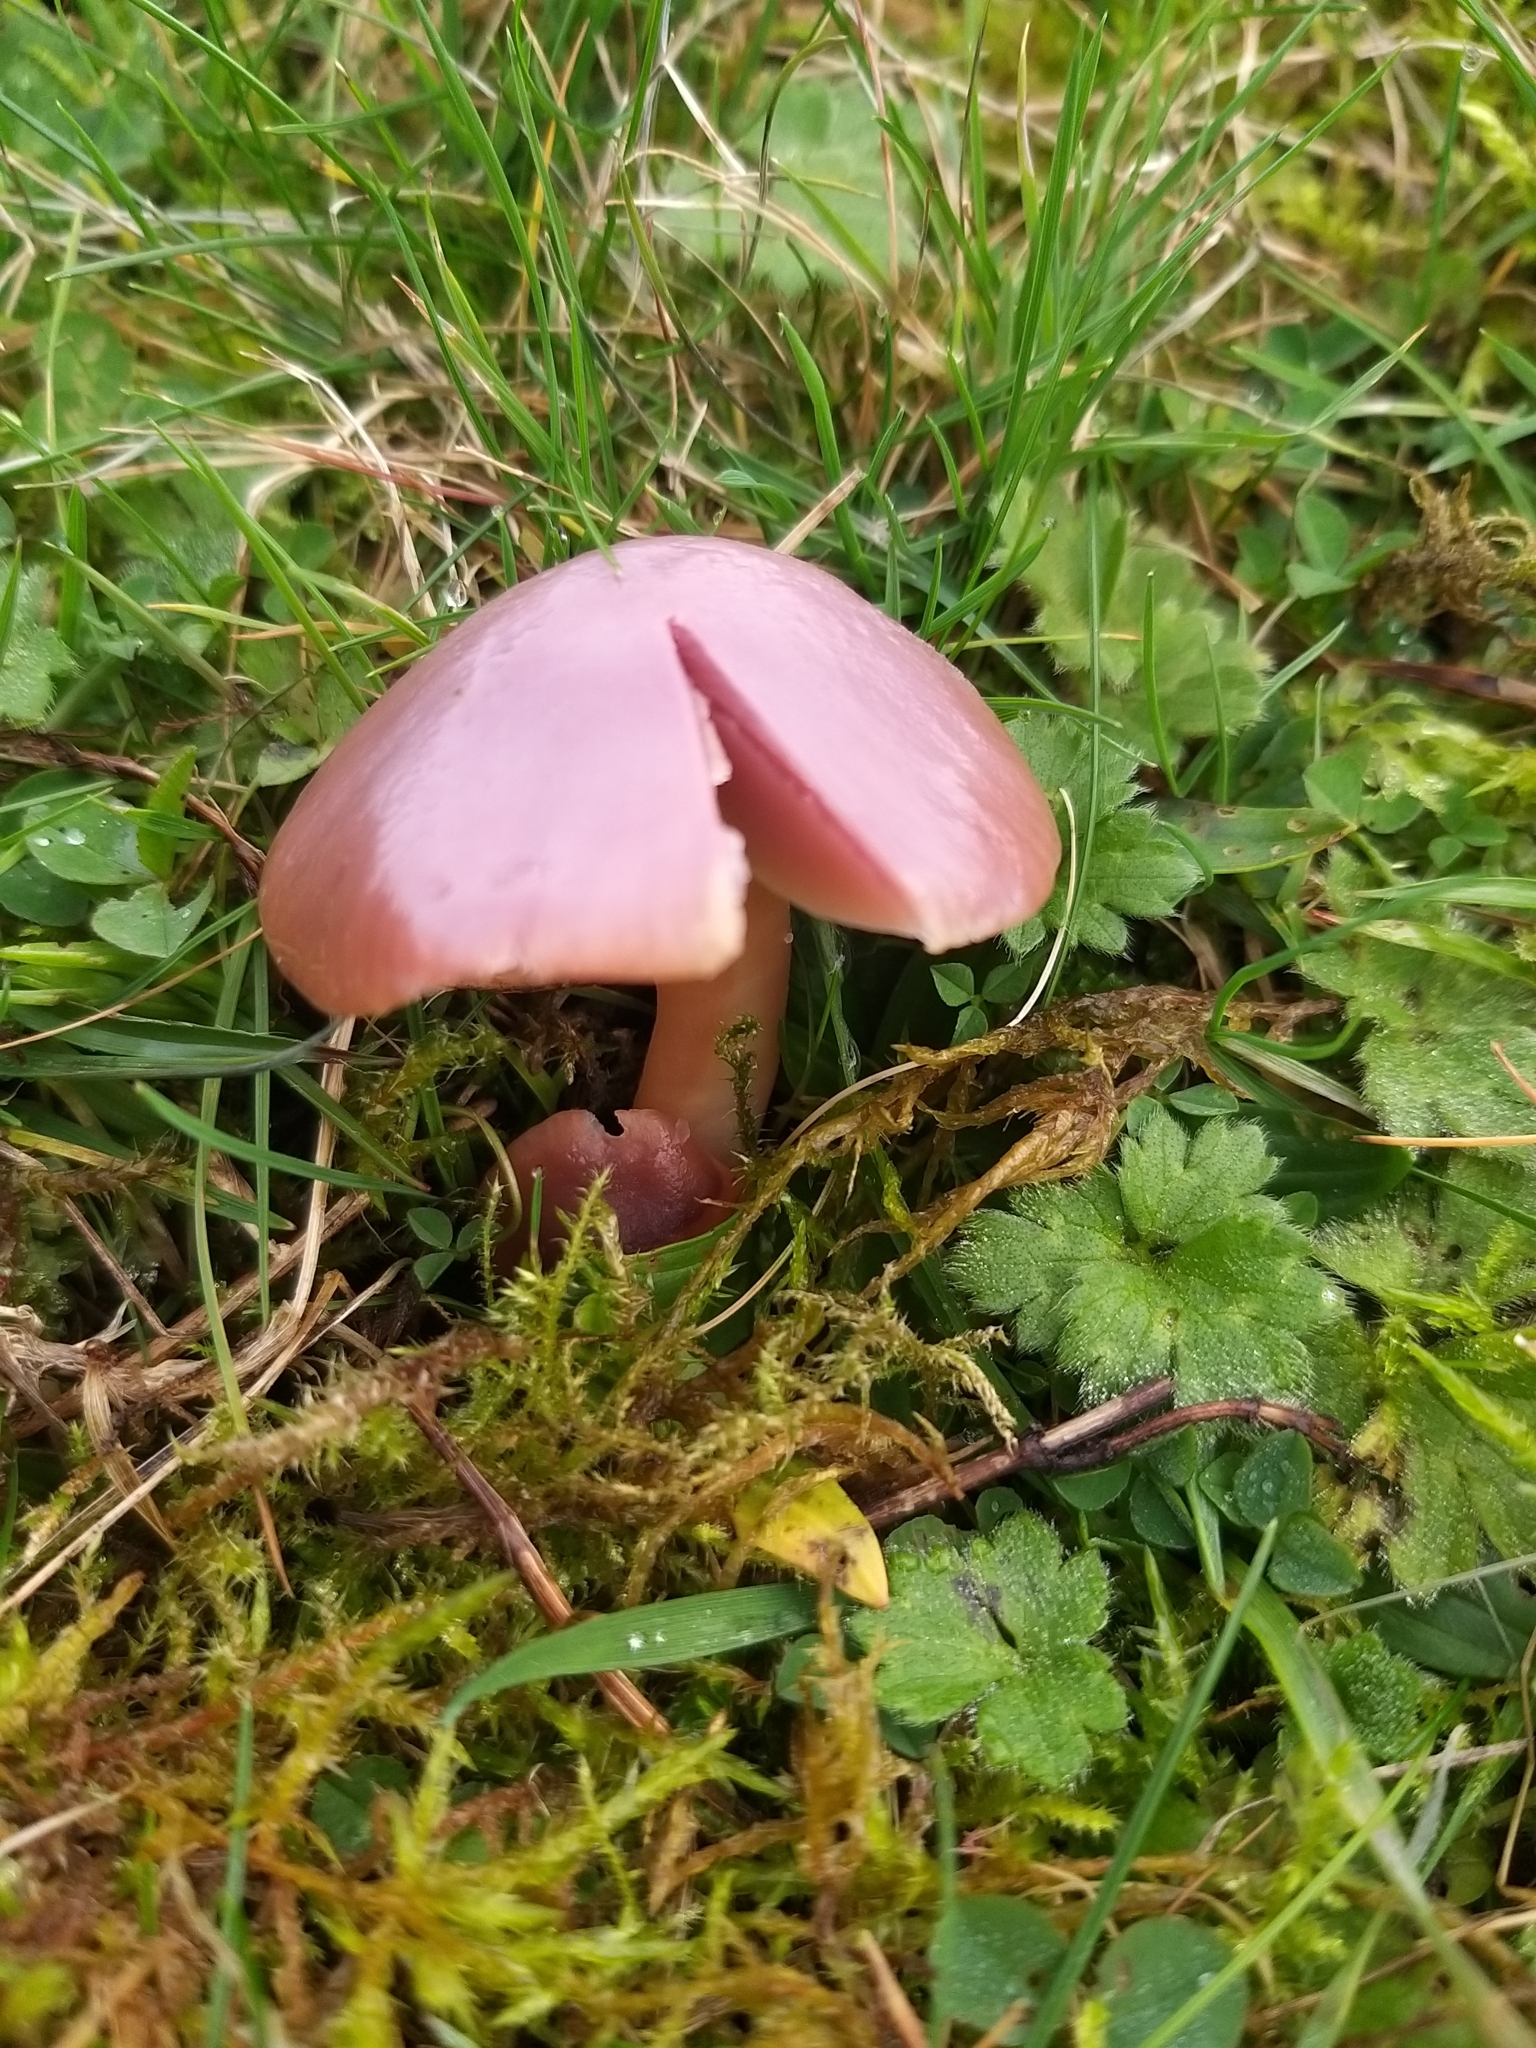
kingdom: Fungi
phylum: Basidiomycota
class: Agaricomycetes
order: Agaricales
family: Hygrophoraceae
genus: Gliophorus
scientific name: Gliophorus reginae
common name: Jubilee waxcap
